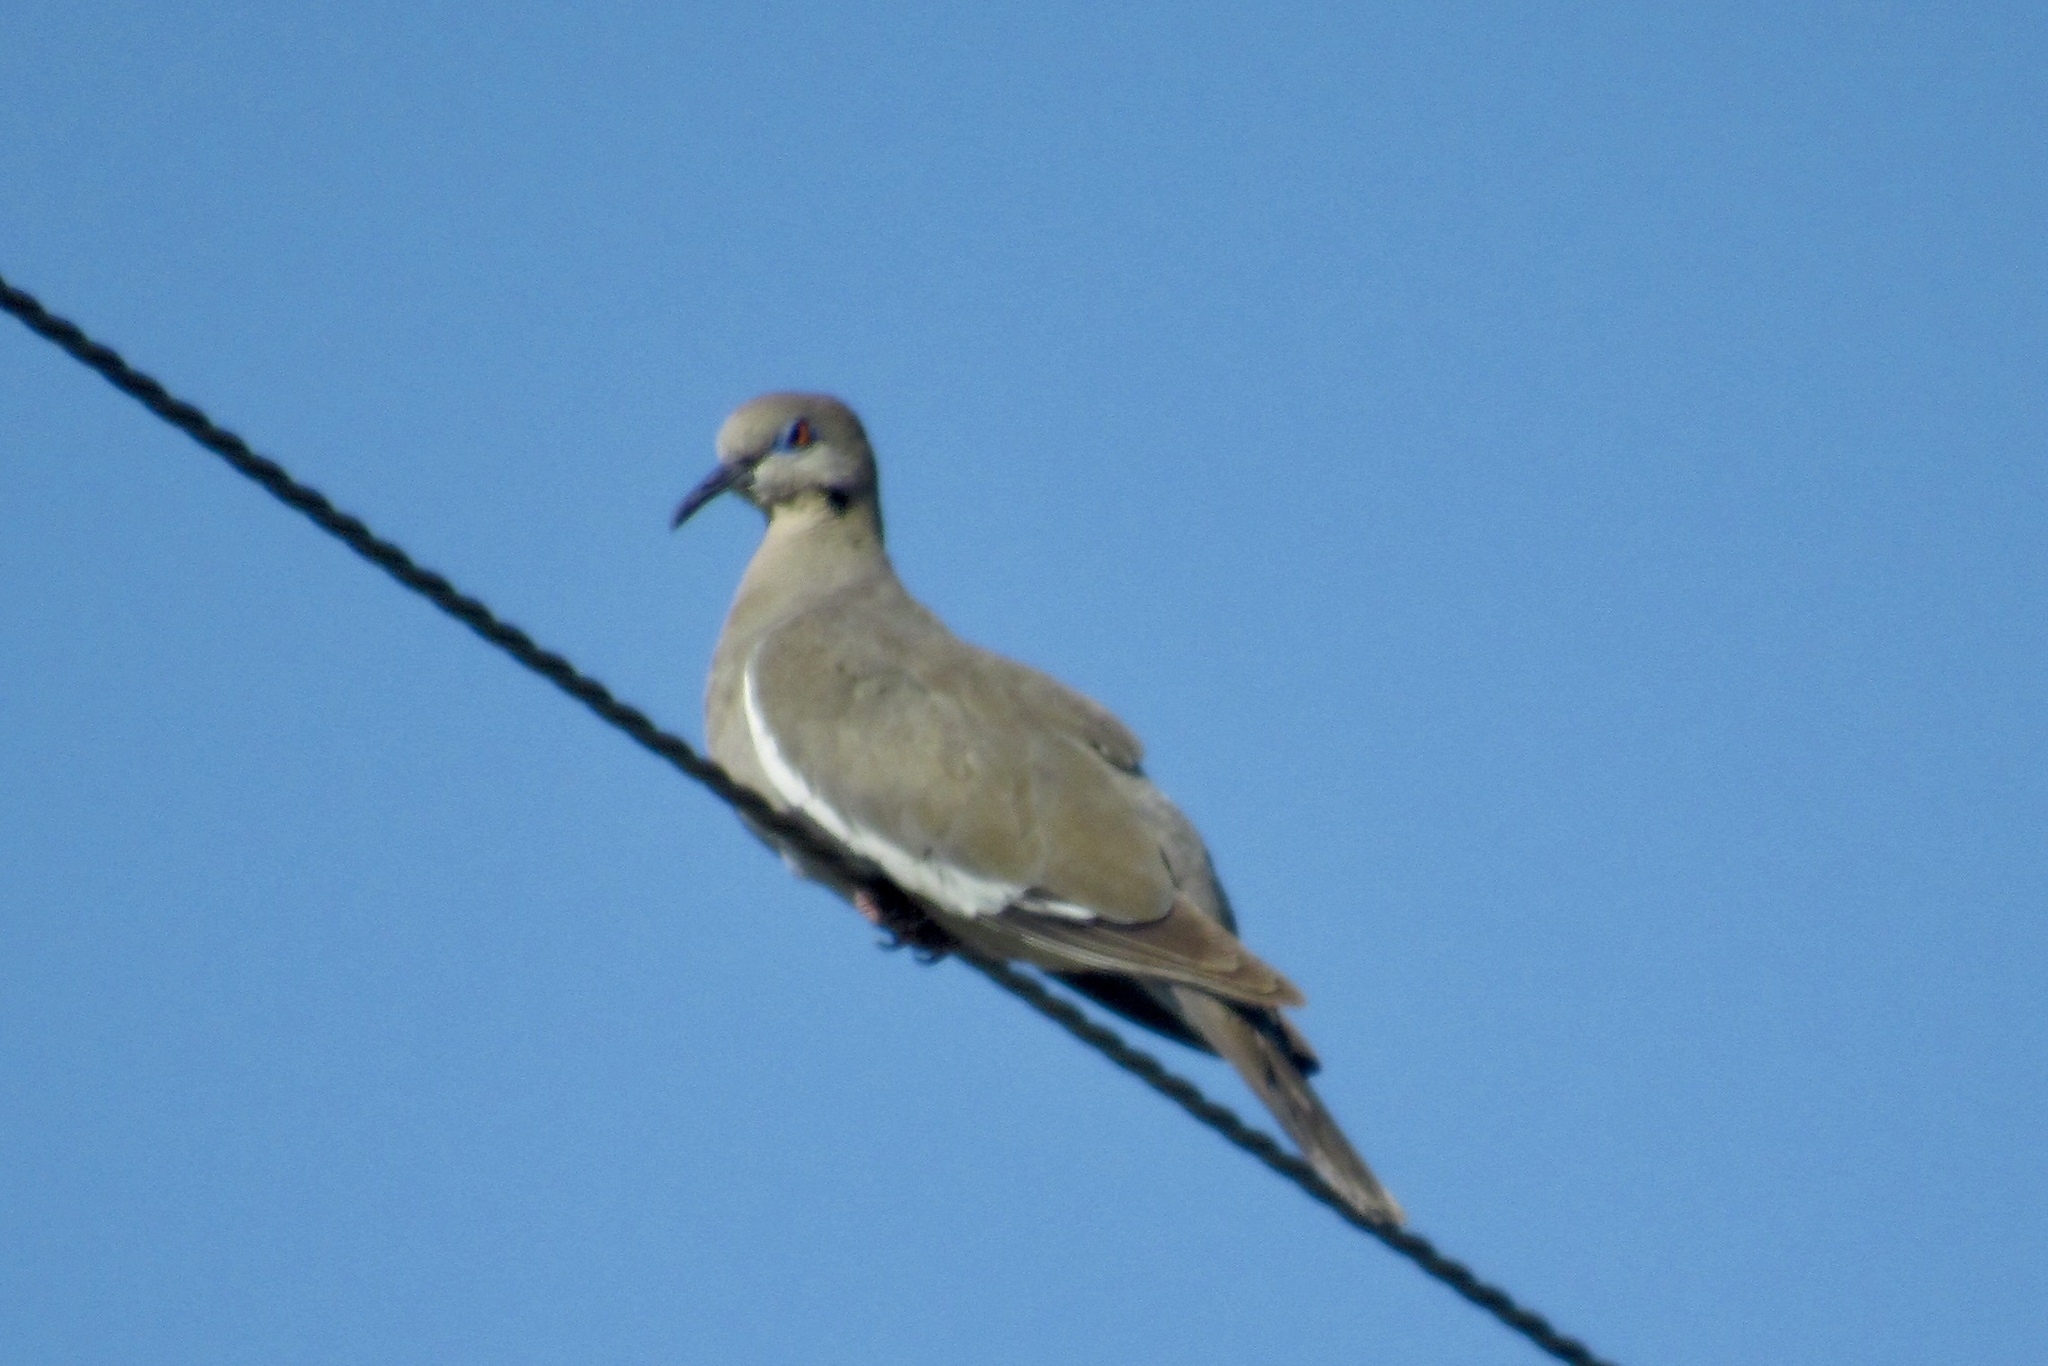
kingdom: Animalia
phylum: Chordata
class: Aves
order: Columbiformes
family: Columbidae
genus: Zenaida
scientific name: Zenaida asiatica
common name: White-winged dove
